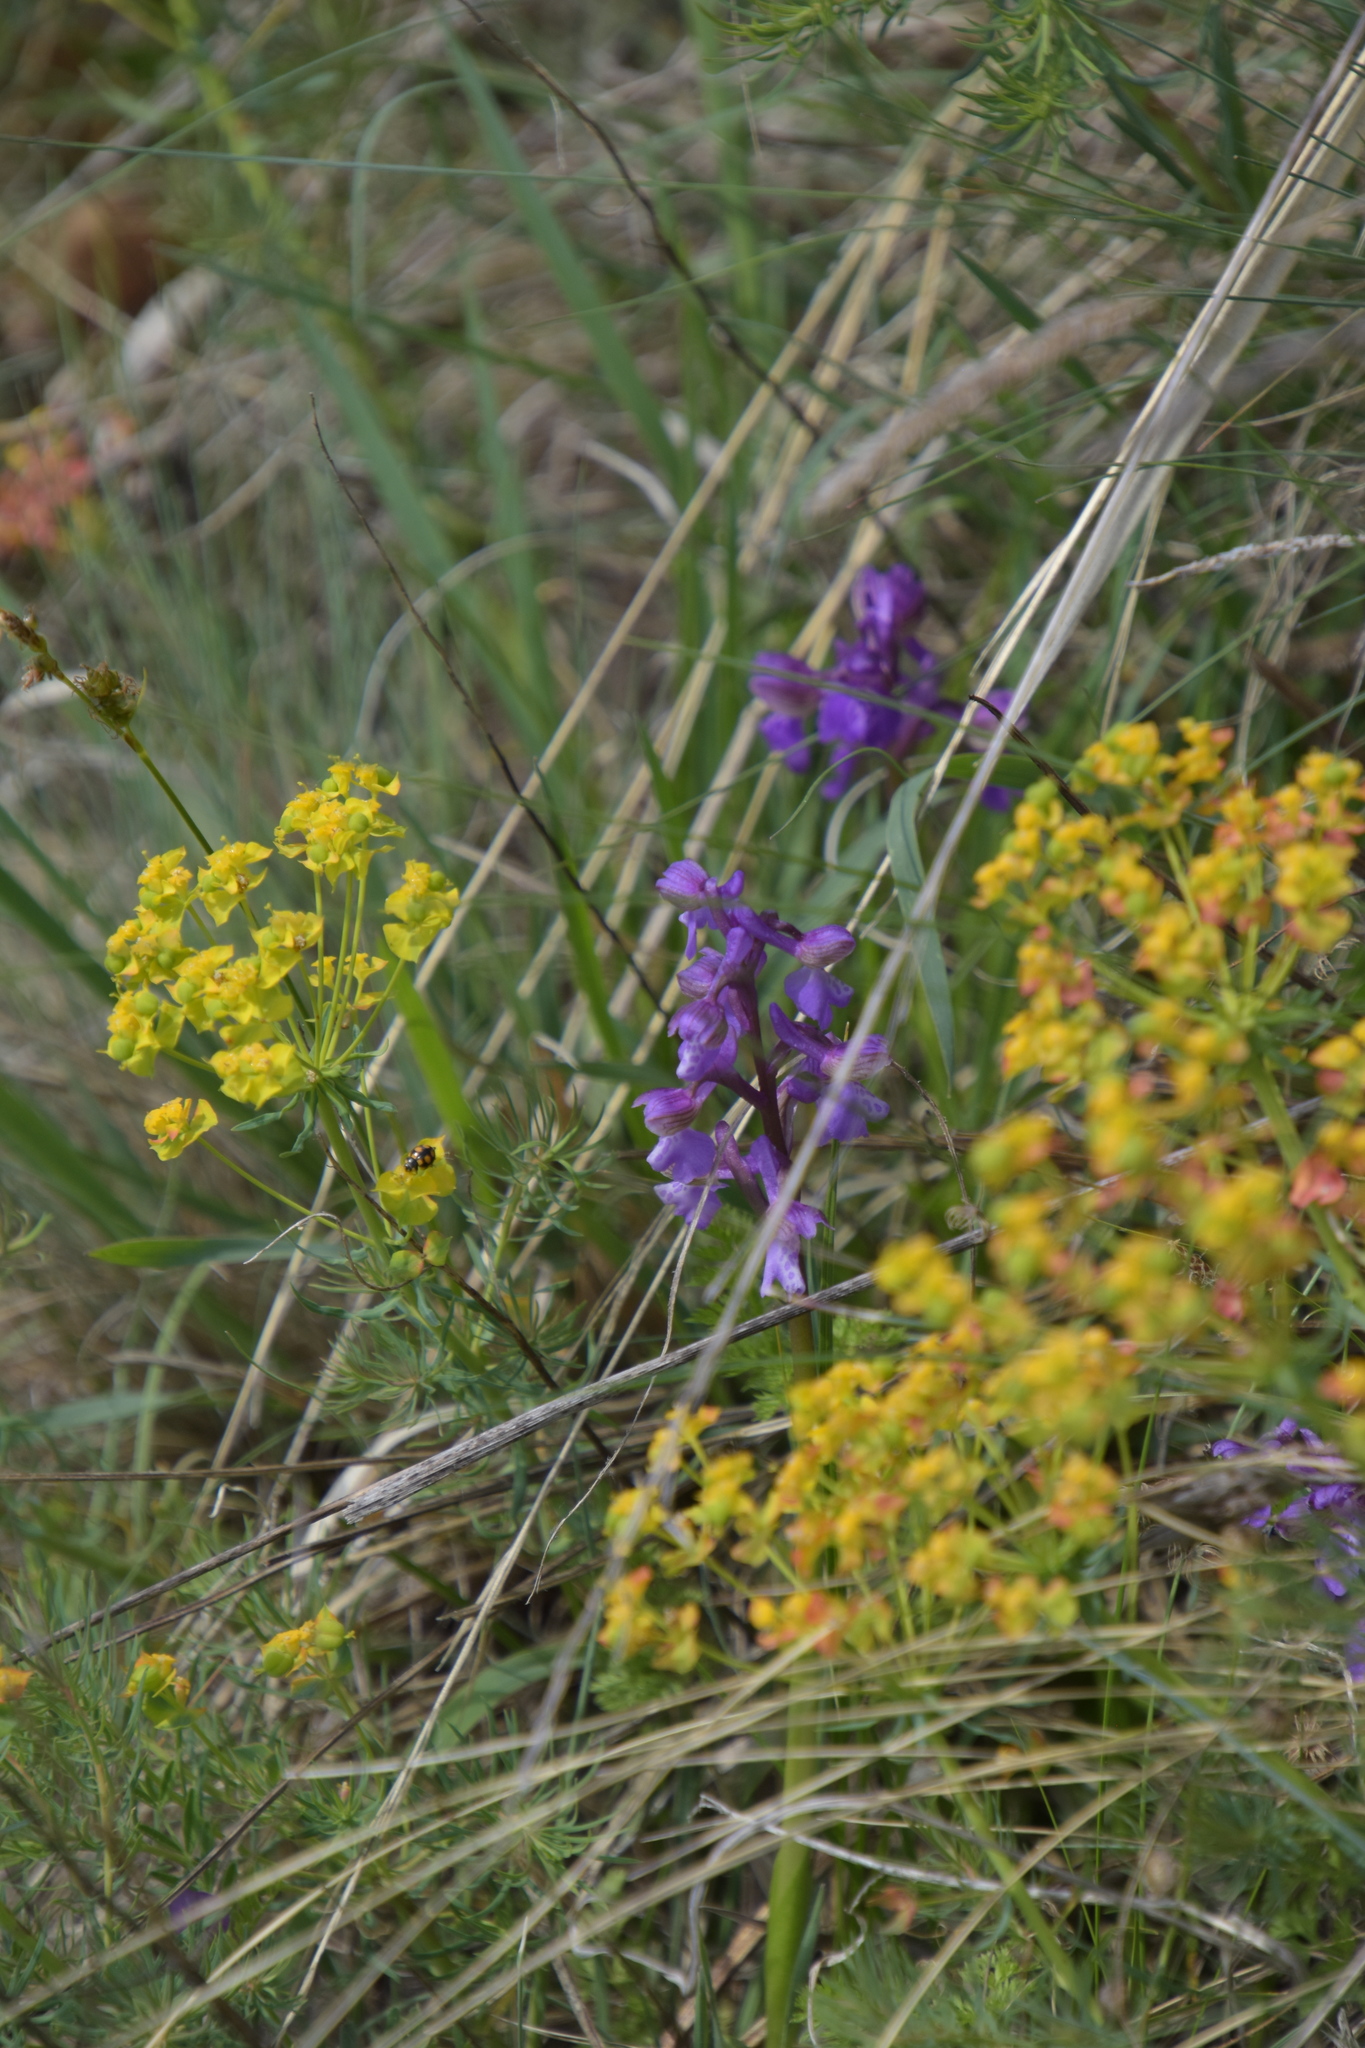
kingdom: Plantae
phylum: Tracheophyta
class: Liliopsida
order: Asparagales
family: Orchidaceae
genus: Anacamptis
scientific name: Anacamptis morio
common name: Green-winged orchid
